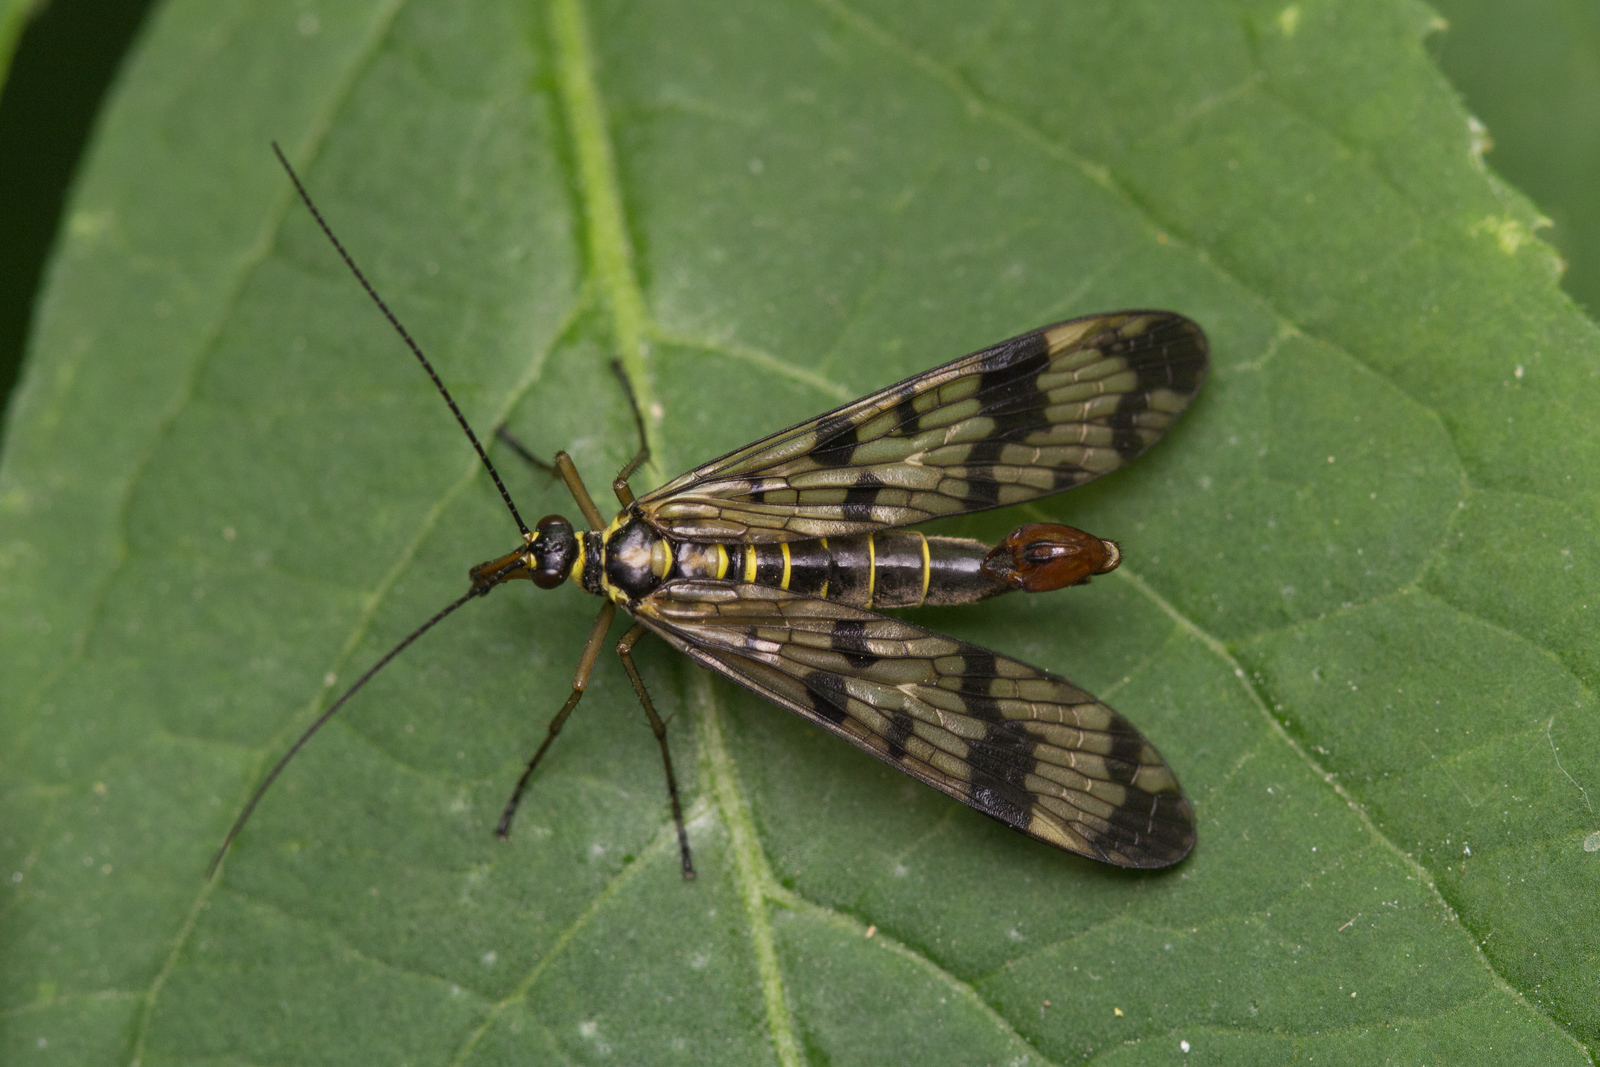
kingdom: Animalia
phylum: Arthropoda
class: Insecta
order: Mecoptera
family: Panorpidae
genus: Panorpa
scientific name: Panorpa communis
